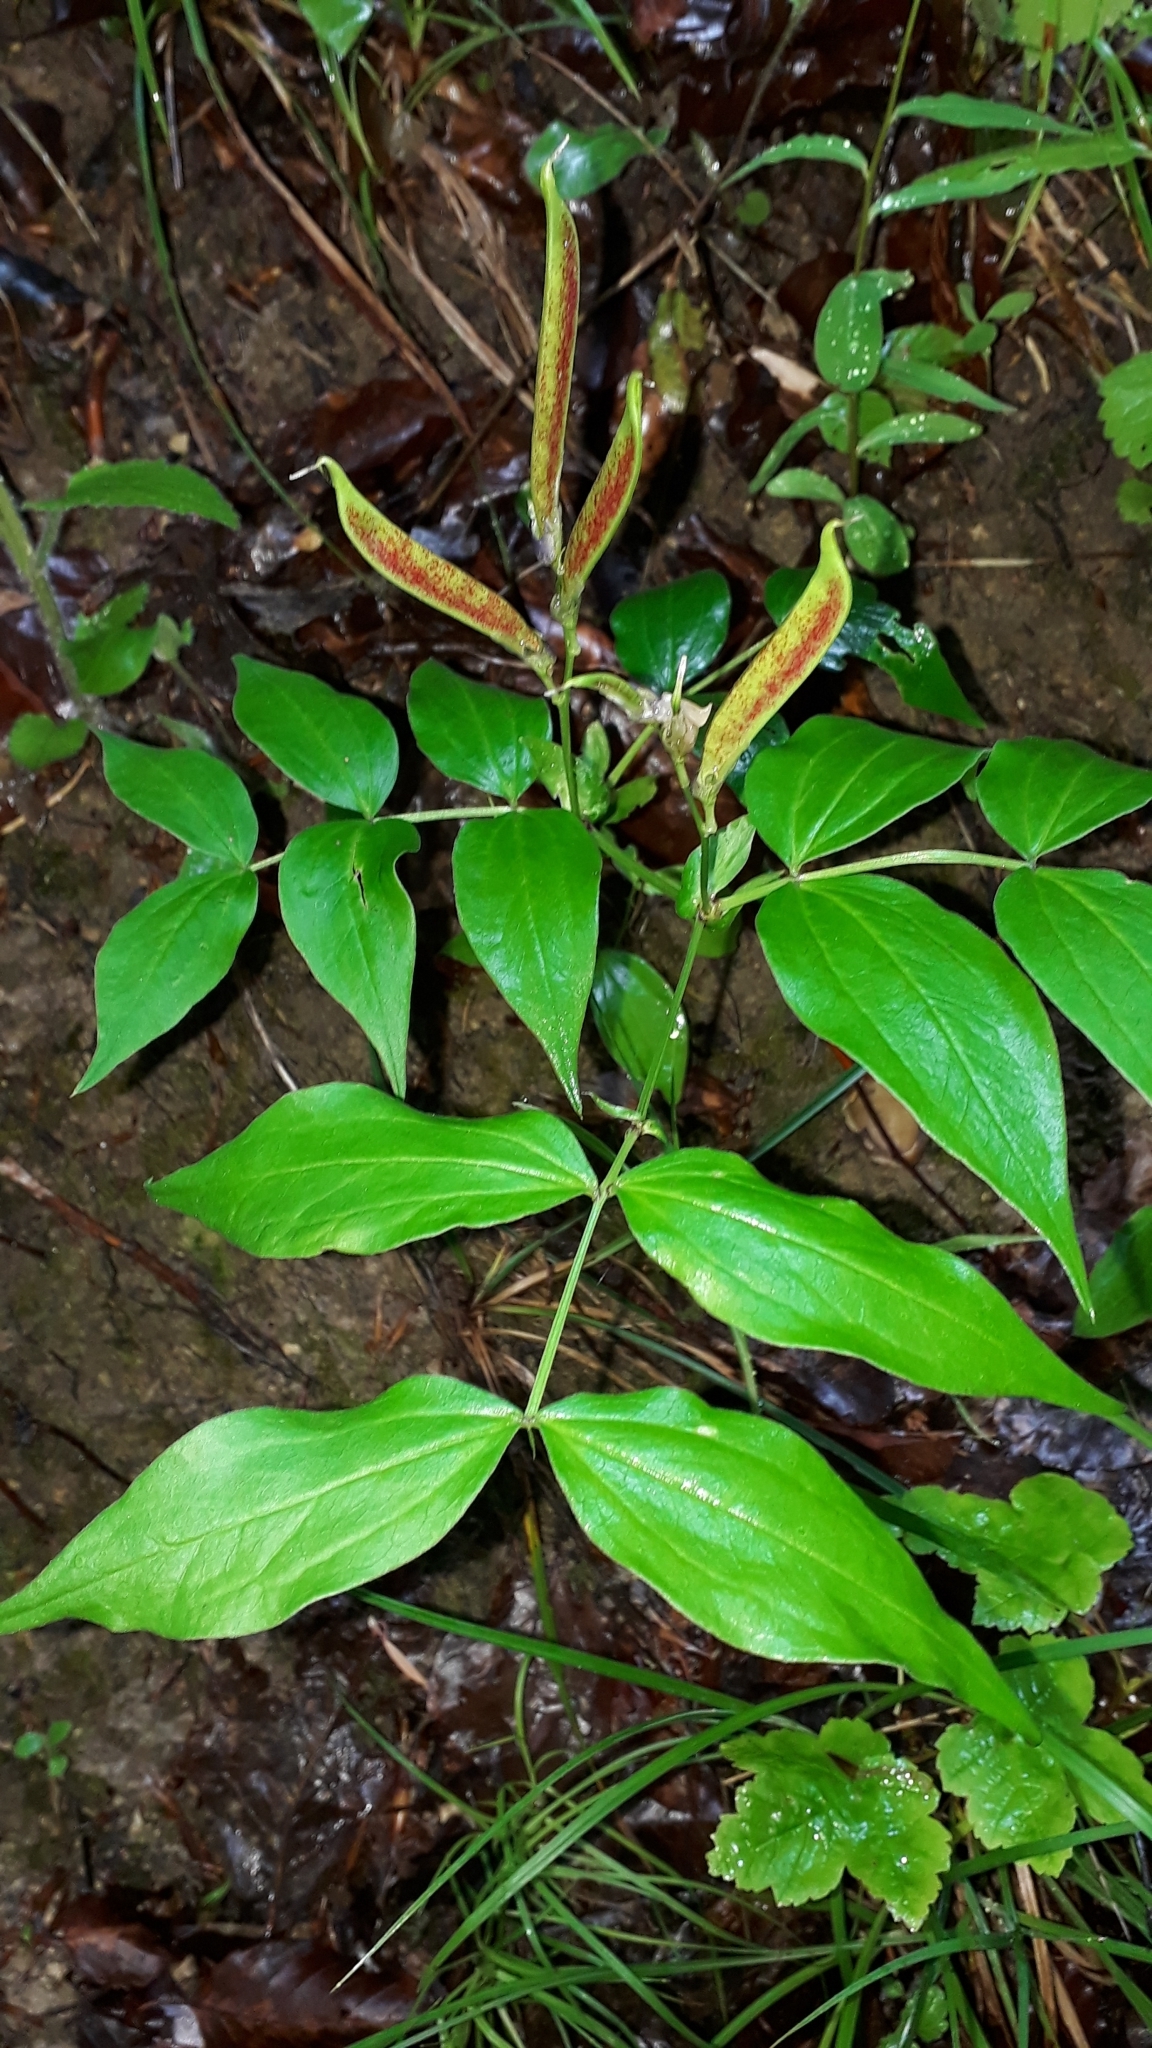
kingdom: Plantae
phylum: Tracheophyta
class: Magnoliopsida
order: Fabales
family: Fabaceae
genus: Lathyrus
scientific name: Lathyrus vernus
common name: Spring pea
